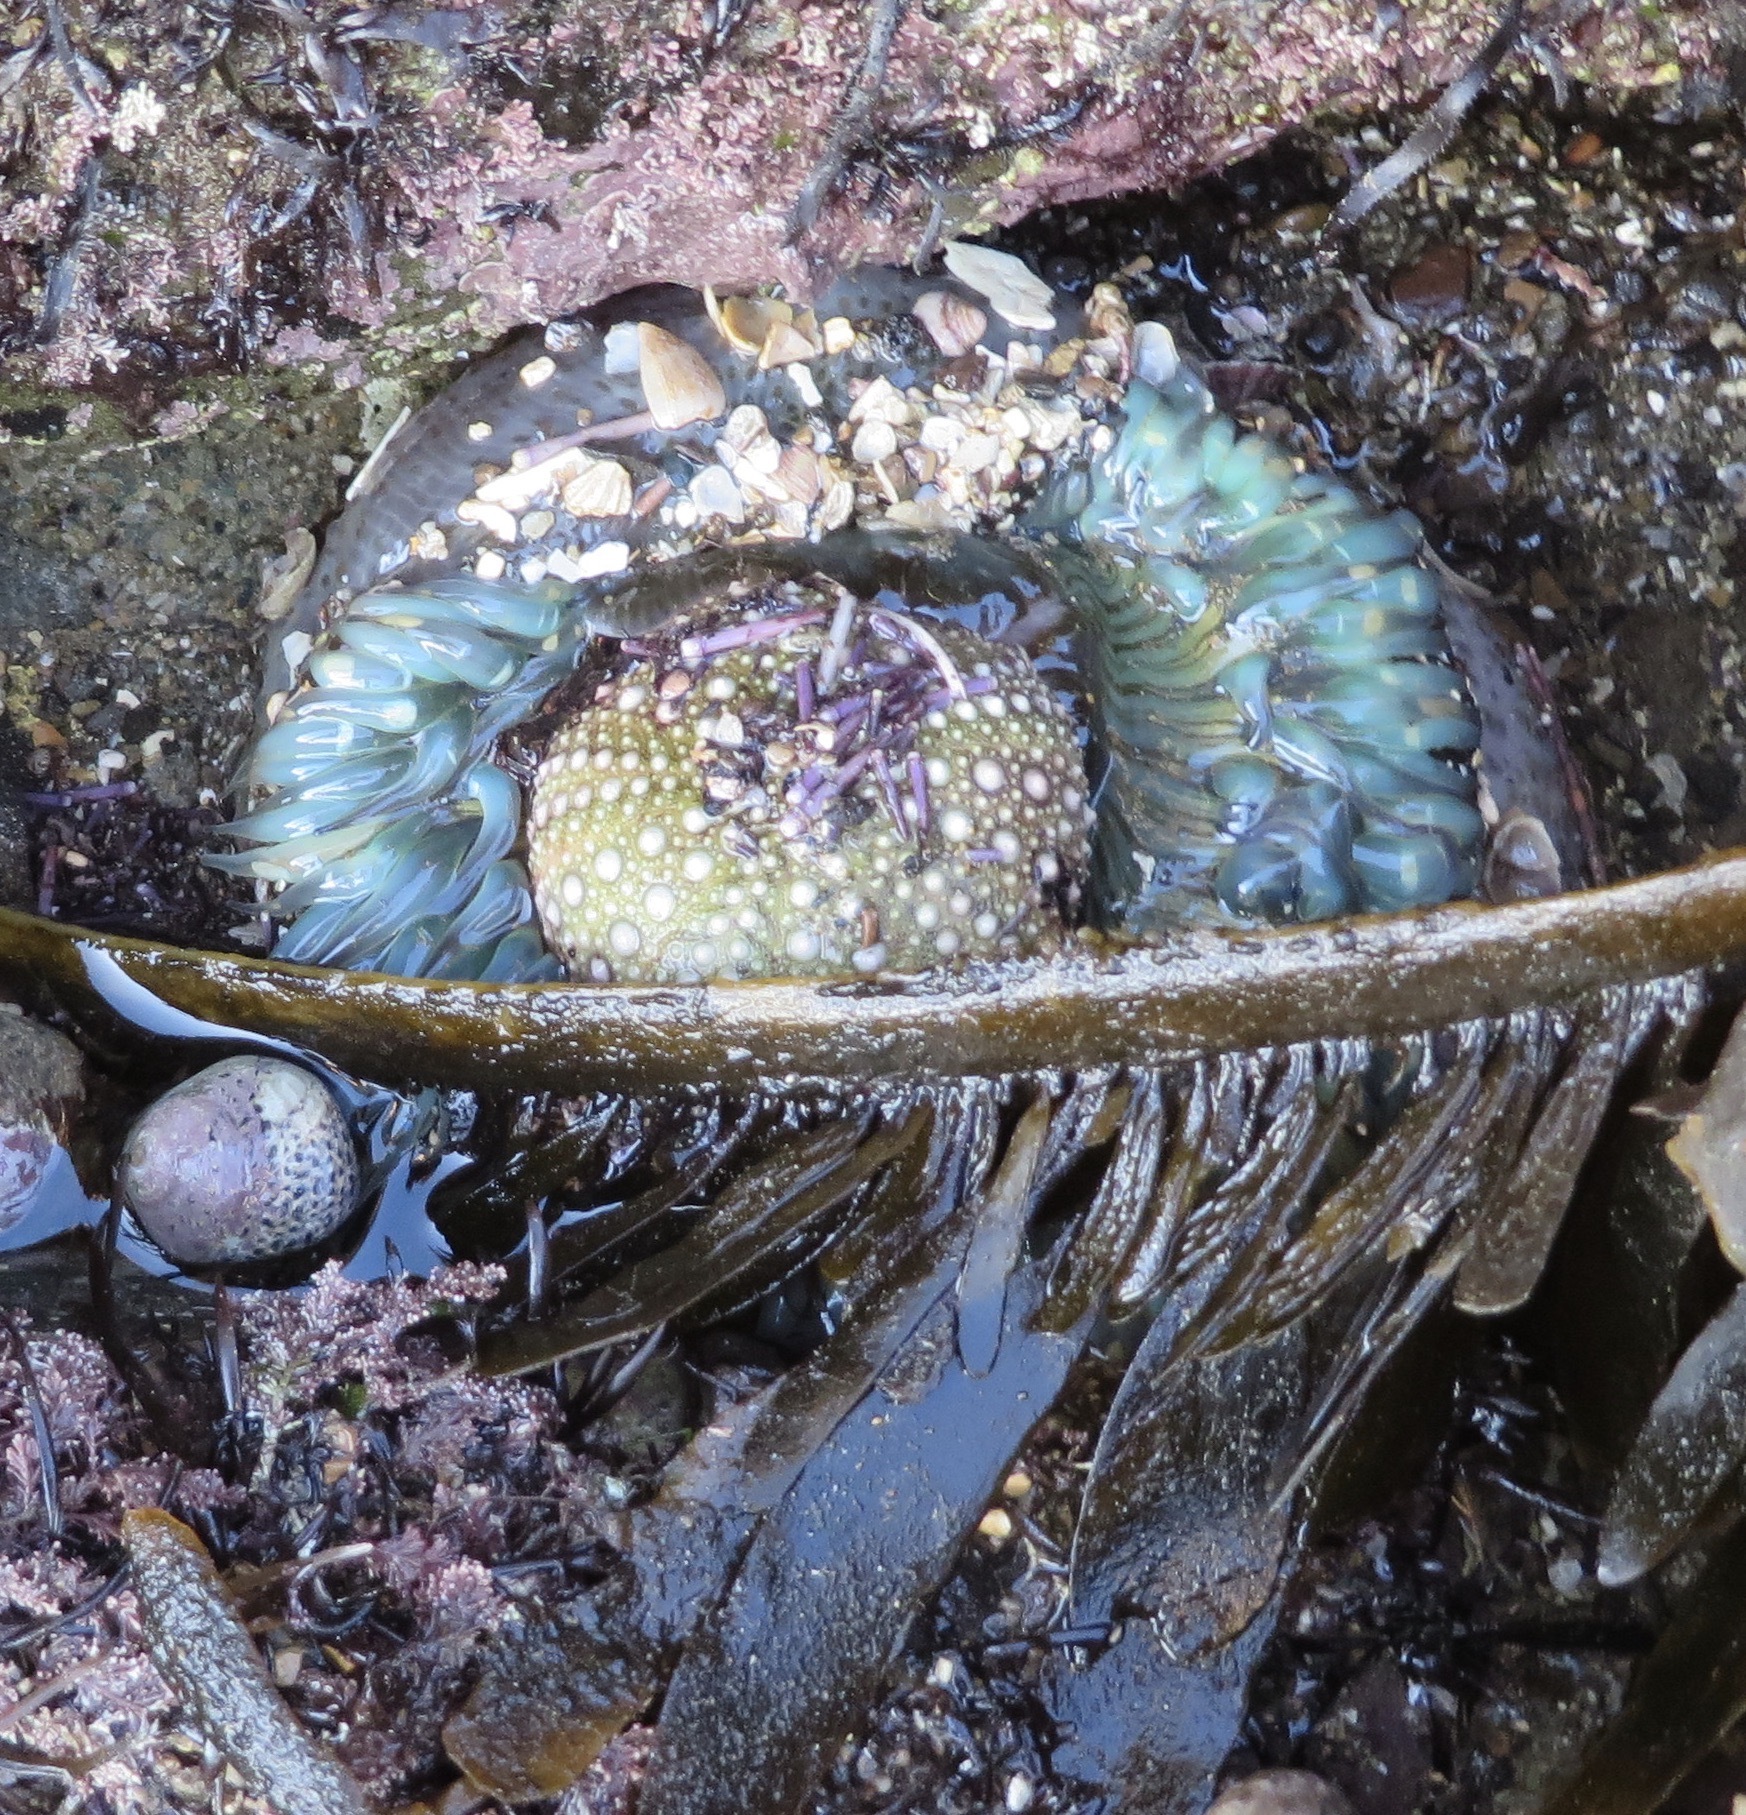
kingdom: Animalia
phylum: Cnidaria
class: Anthozoa
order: Actiniaria
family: Actiniidae
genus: Anthopleura
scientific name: Anthopleura sola
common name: Sun anemone
